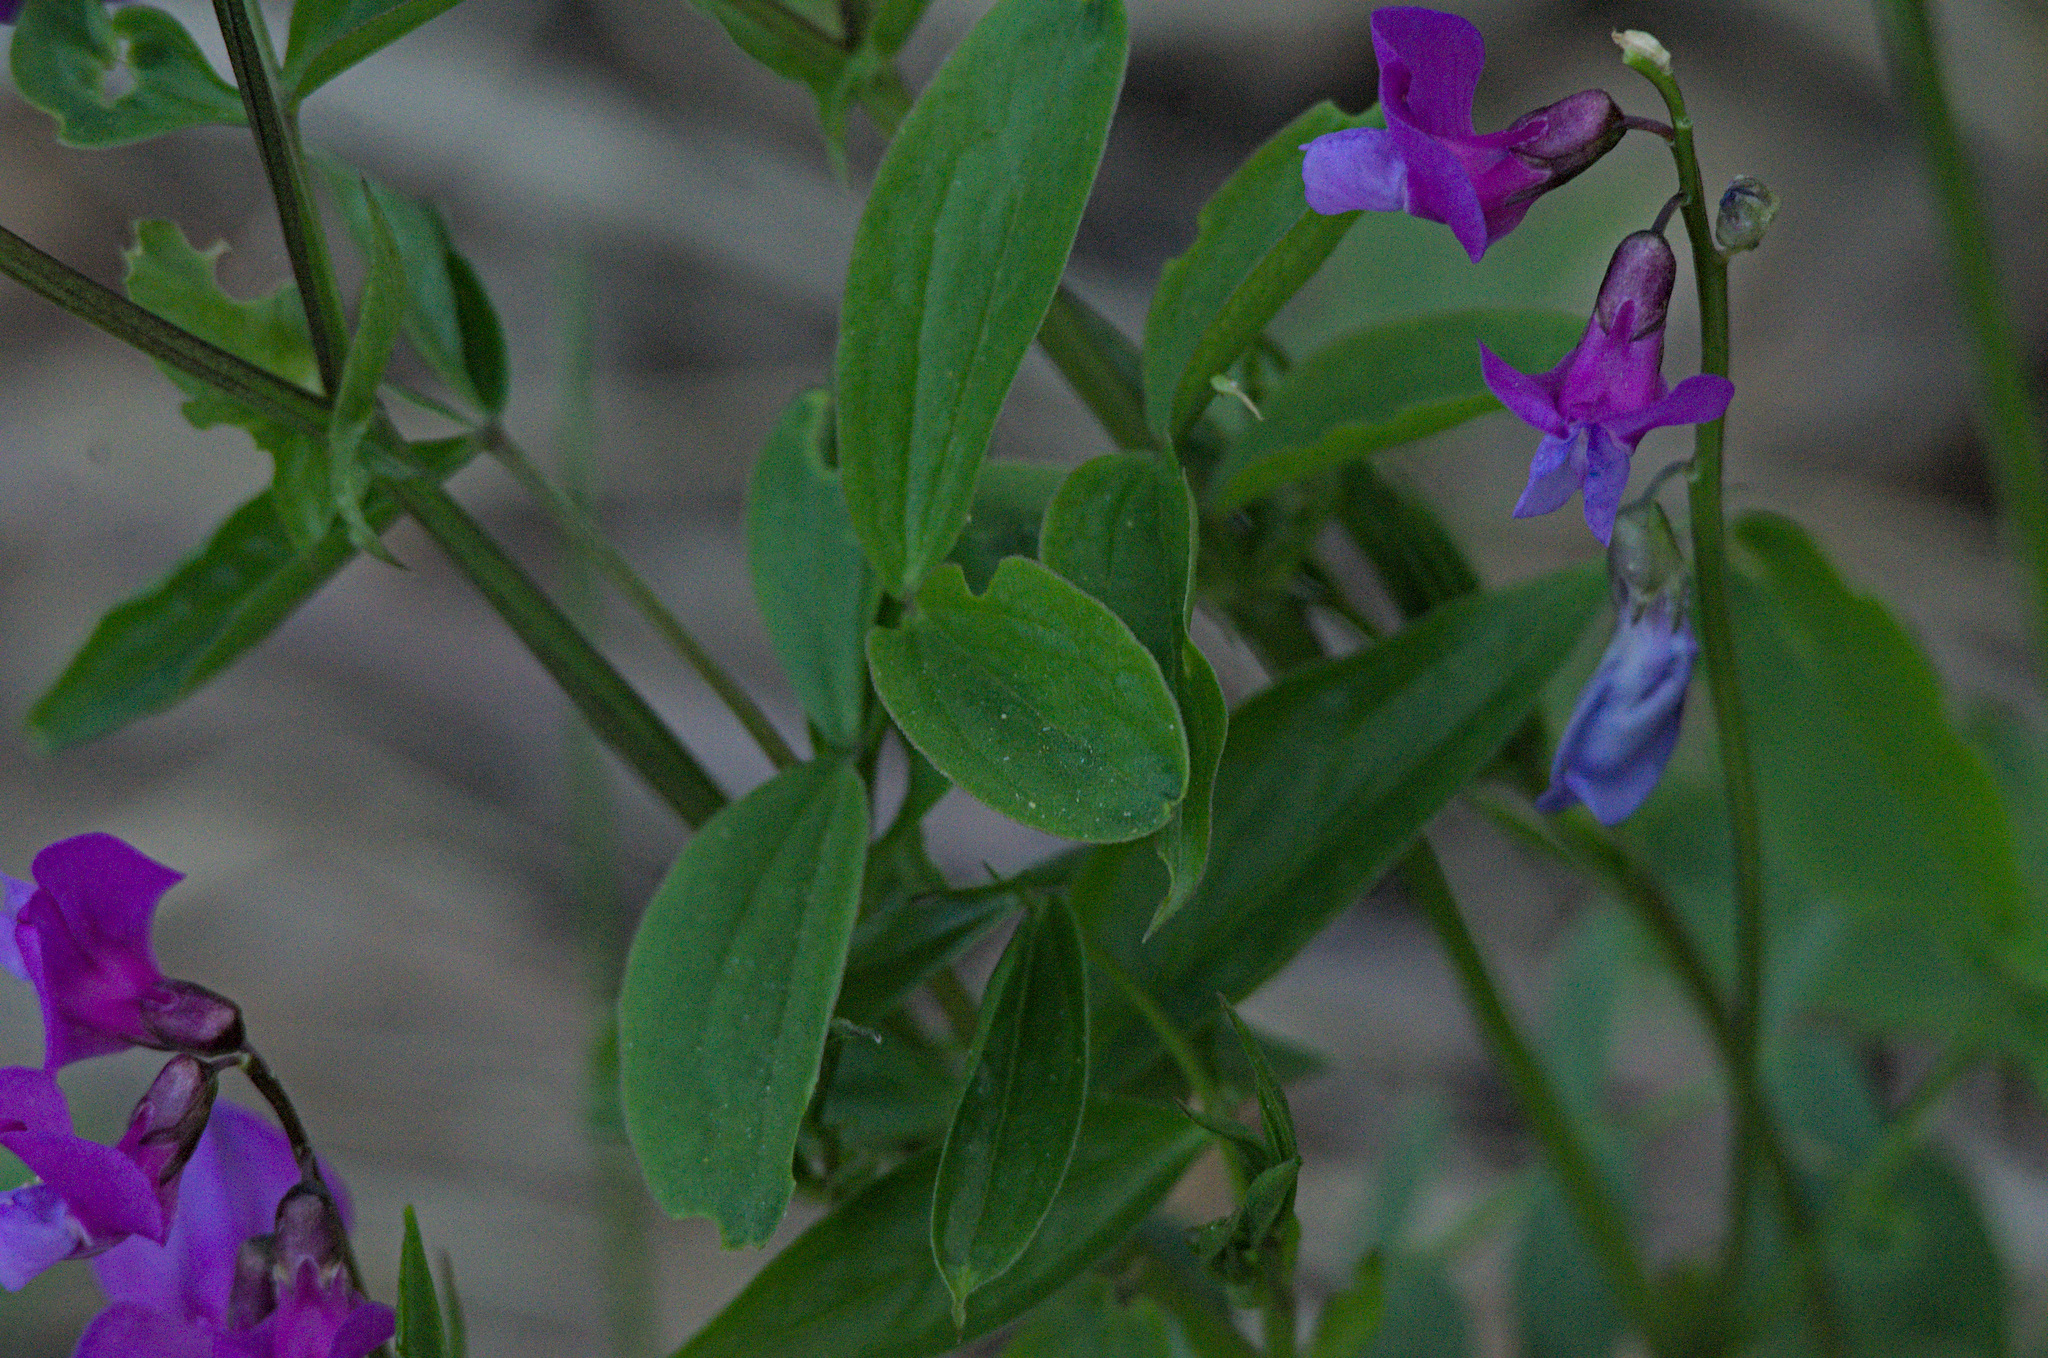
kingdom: Plantae
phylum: Tracheophyta
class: Magnoliopsida
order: Fabales
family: Fabaceae
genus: Lathyrus
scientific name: Lathyrus vernus
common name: Spring pea
